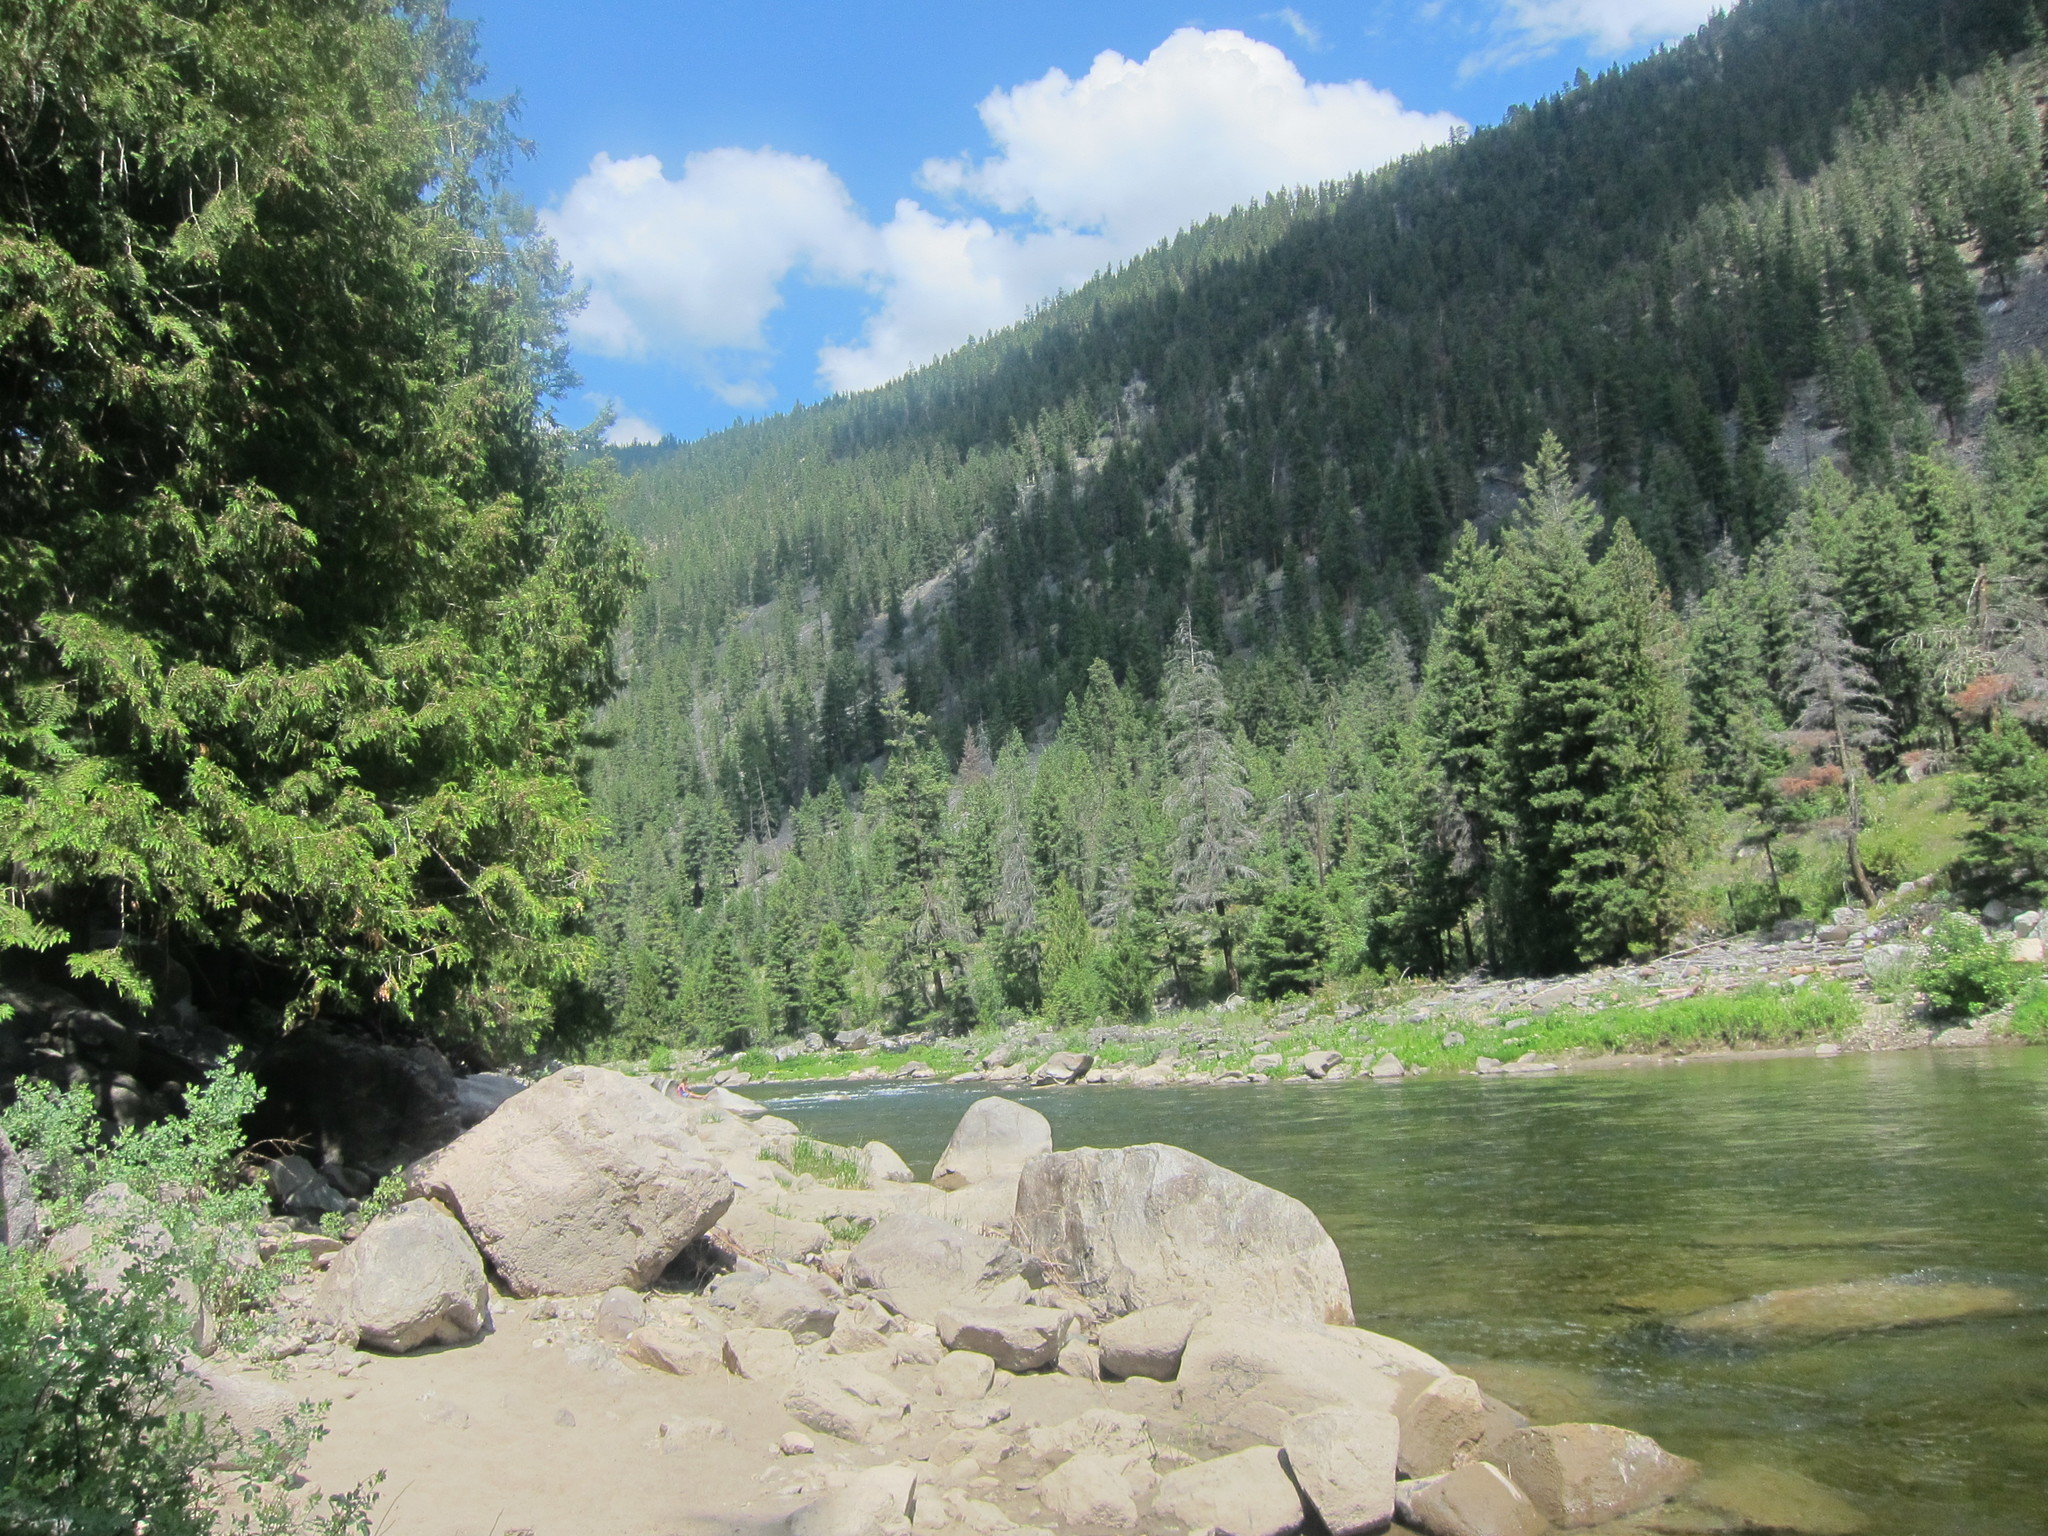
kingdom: Plantae
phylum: Tracheophyta
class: Pinopsida
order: Pinales
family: Pinaceae
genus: Pseudotsuga
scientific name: Pseudotsuga menziesii
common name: Douglas fir
